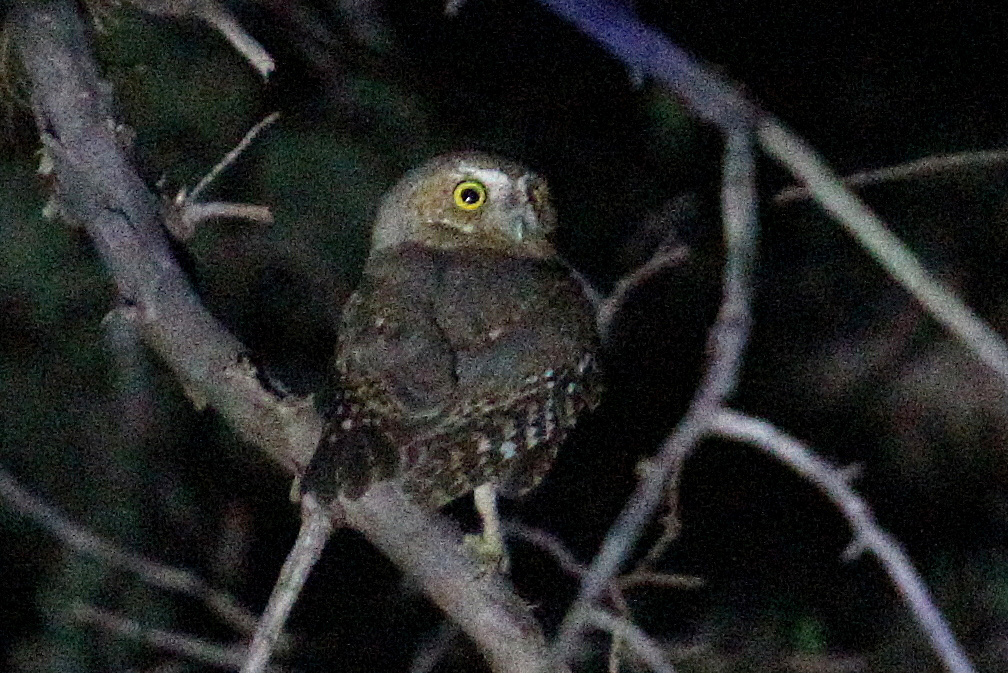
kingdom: Animalia
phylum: Chordata
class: Aves
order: Strigiformes
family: Strigidae
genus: Micrathene
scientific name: Micrathene whitneyi
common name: Elf owl
